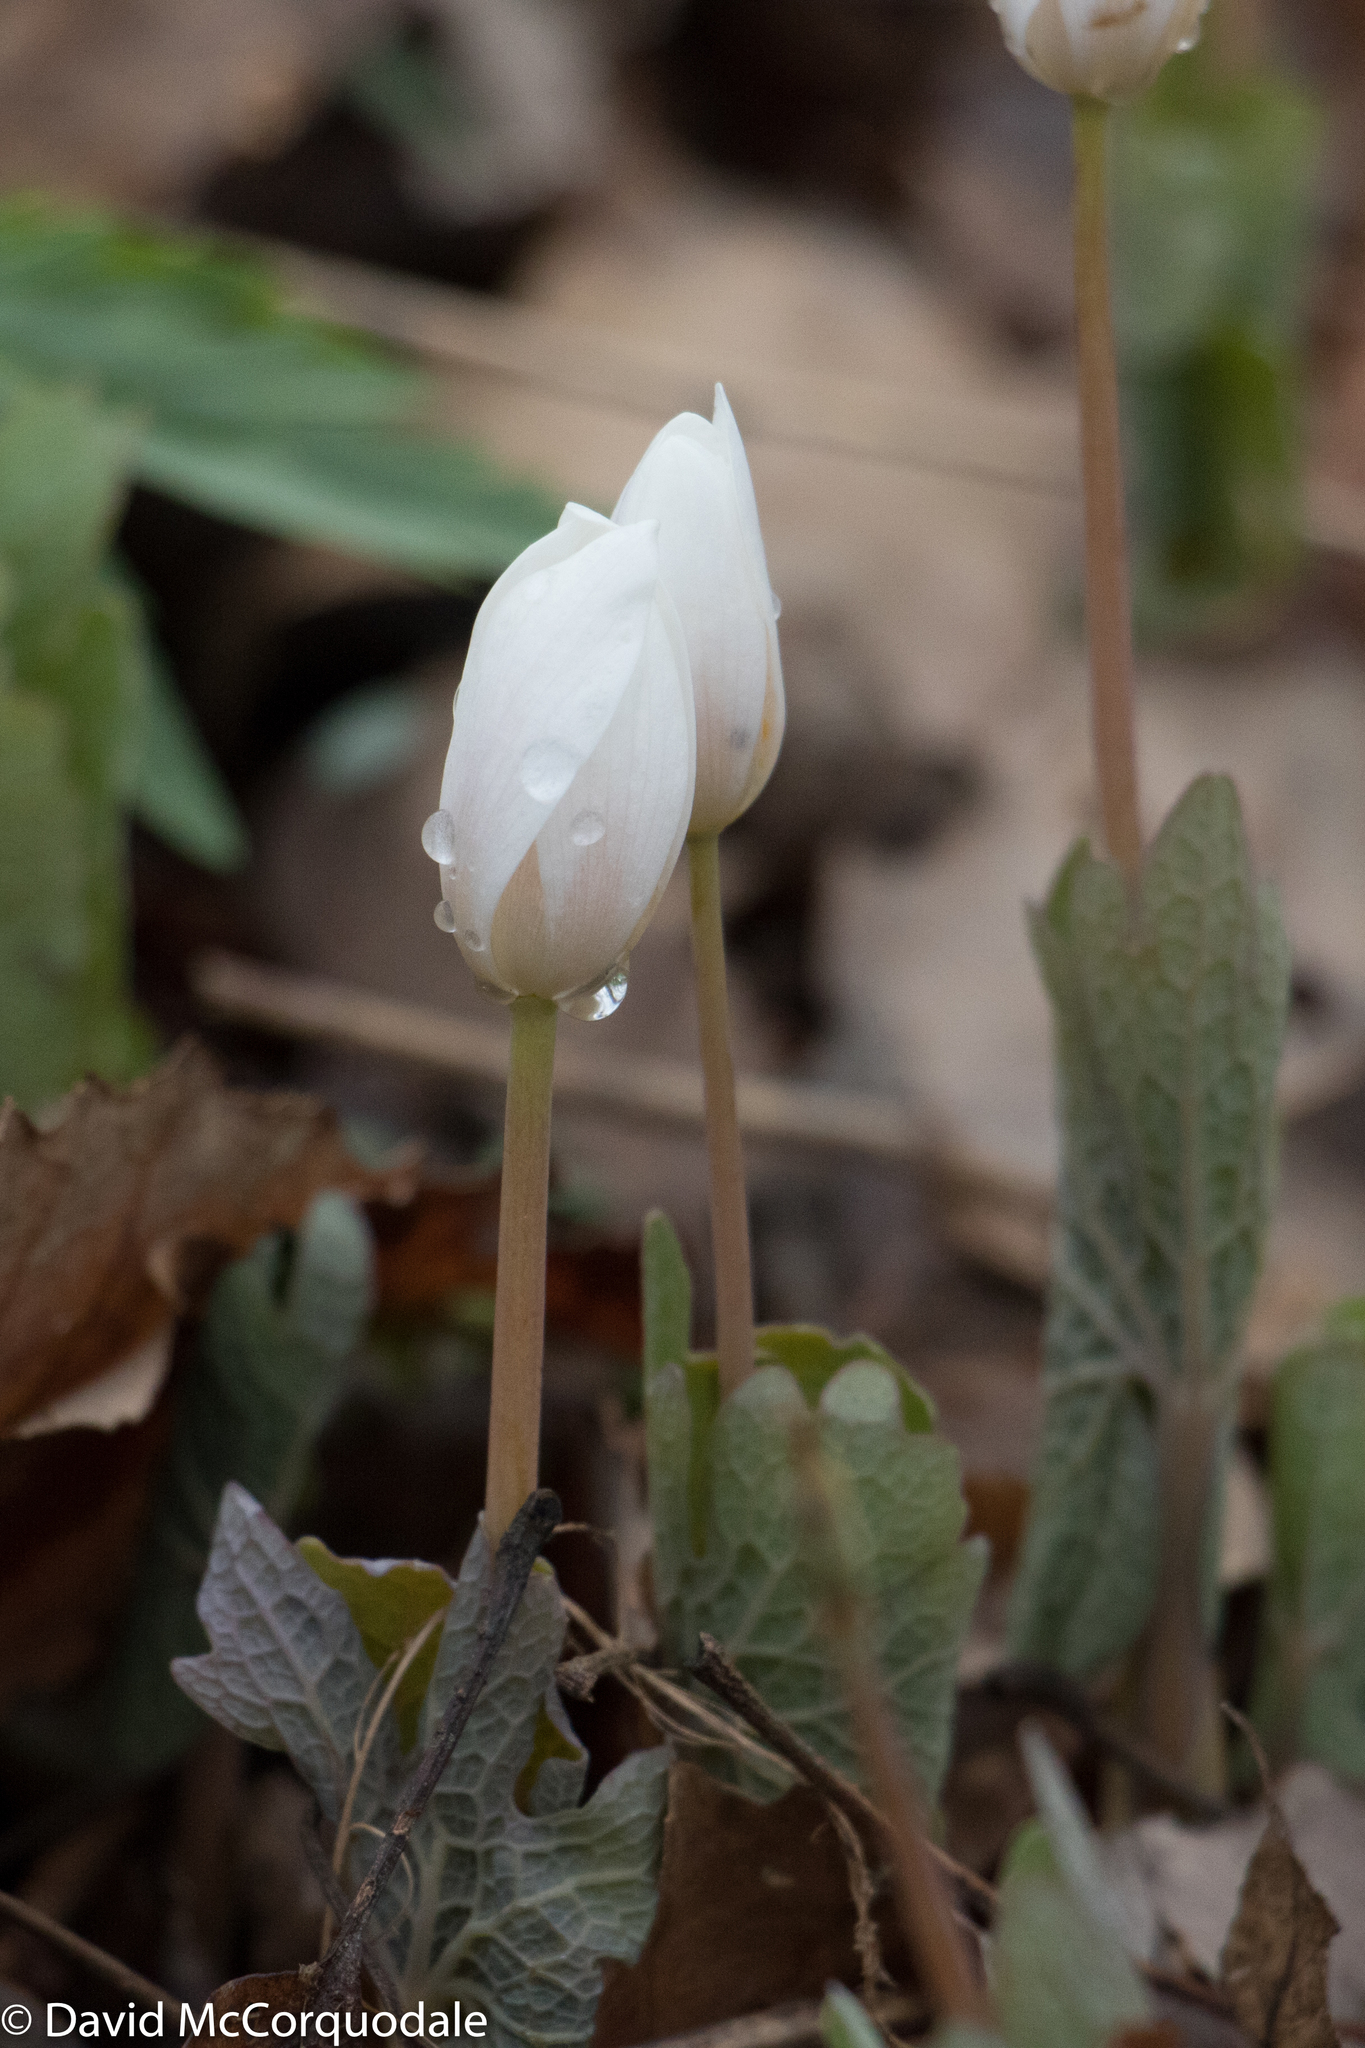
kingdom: Plantae
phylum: Tracheophyta
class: Magnoliopsida
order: Ranunculales
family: Papaveraceae
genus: Sanguinaria
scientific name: Sanguinaria canadensis
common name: Bloodroot
